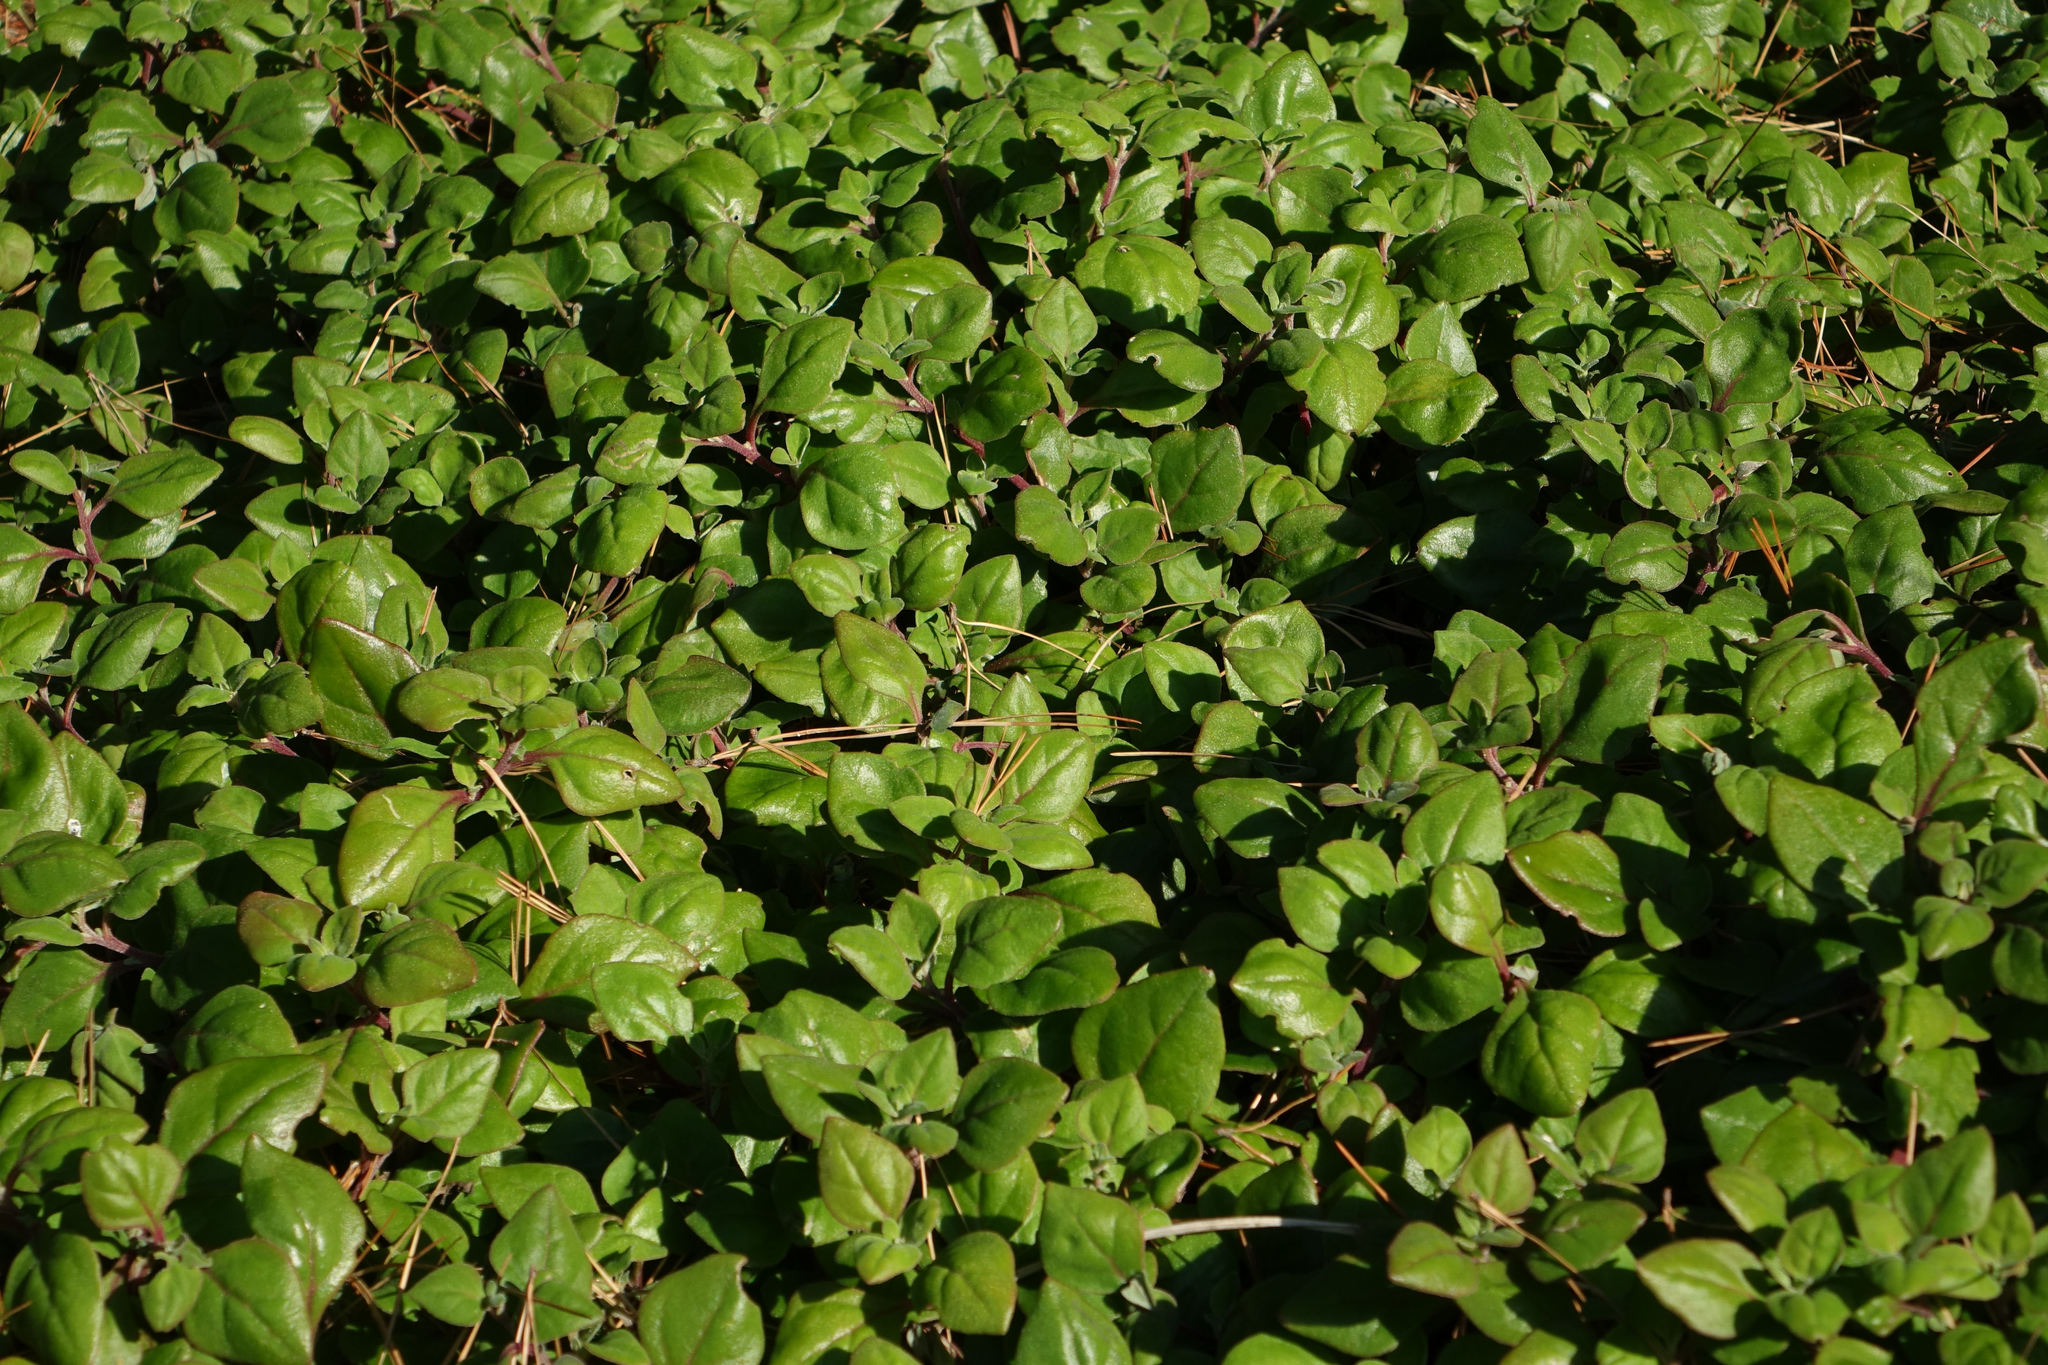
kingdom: Plantae
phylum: Tracheophyta
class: Magnoliopsida
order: Caryophyllales
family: Aizoaceae
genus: Tetragonia
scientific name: Tetragonia implexicoma
